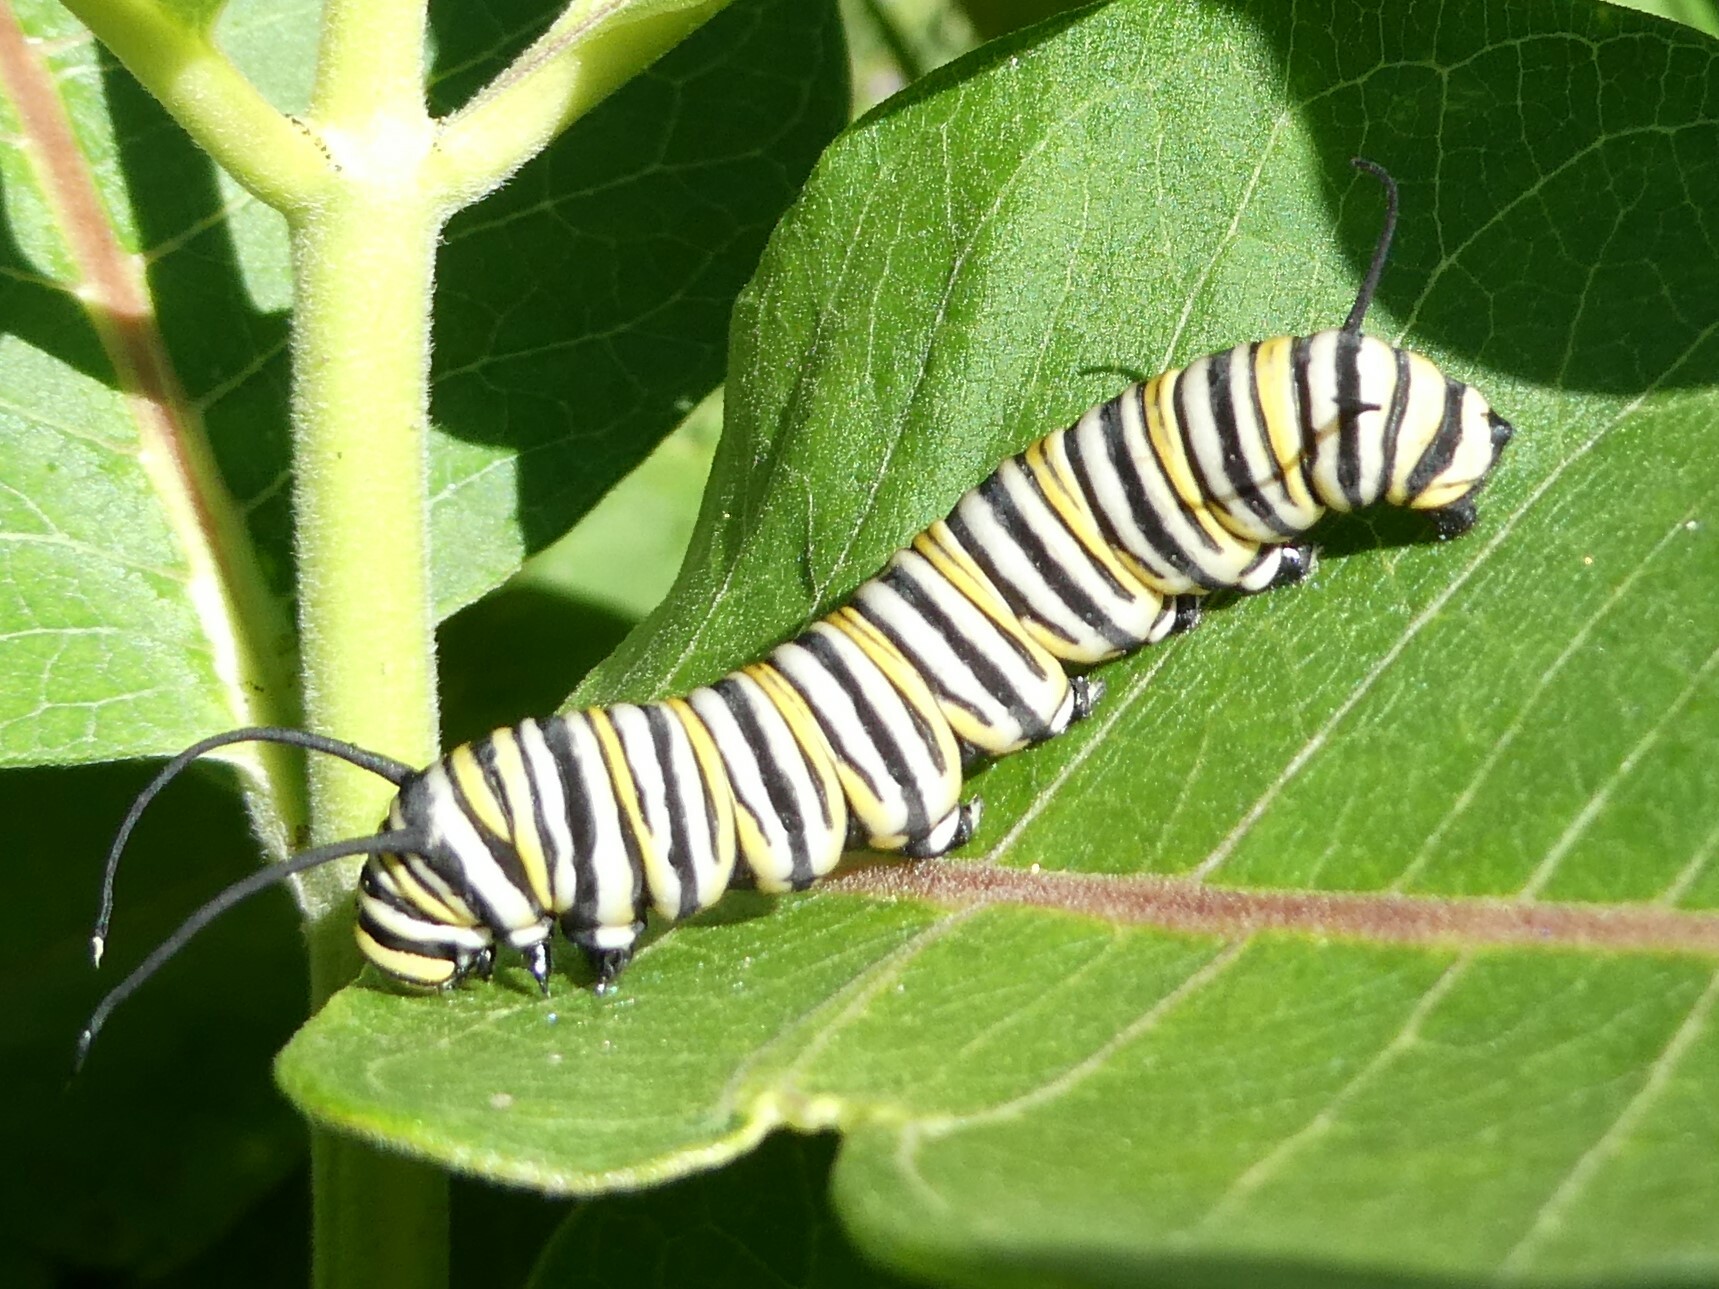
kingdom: Animalia
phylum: Arthropoda
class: Insecta
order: Lepidoptera
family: Nymphalidae
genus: Danaus
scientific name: Danaus plexippus
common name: Monarch
